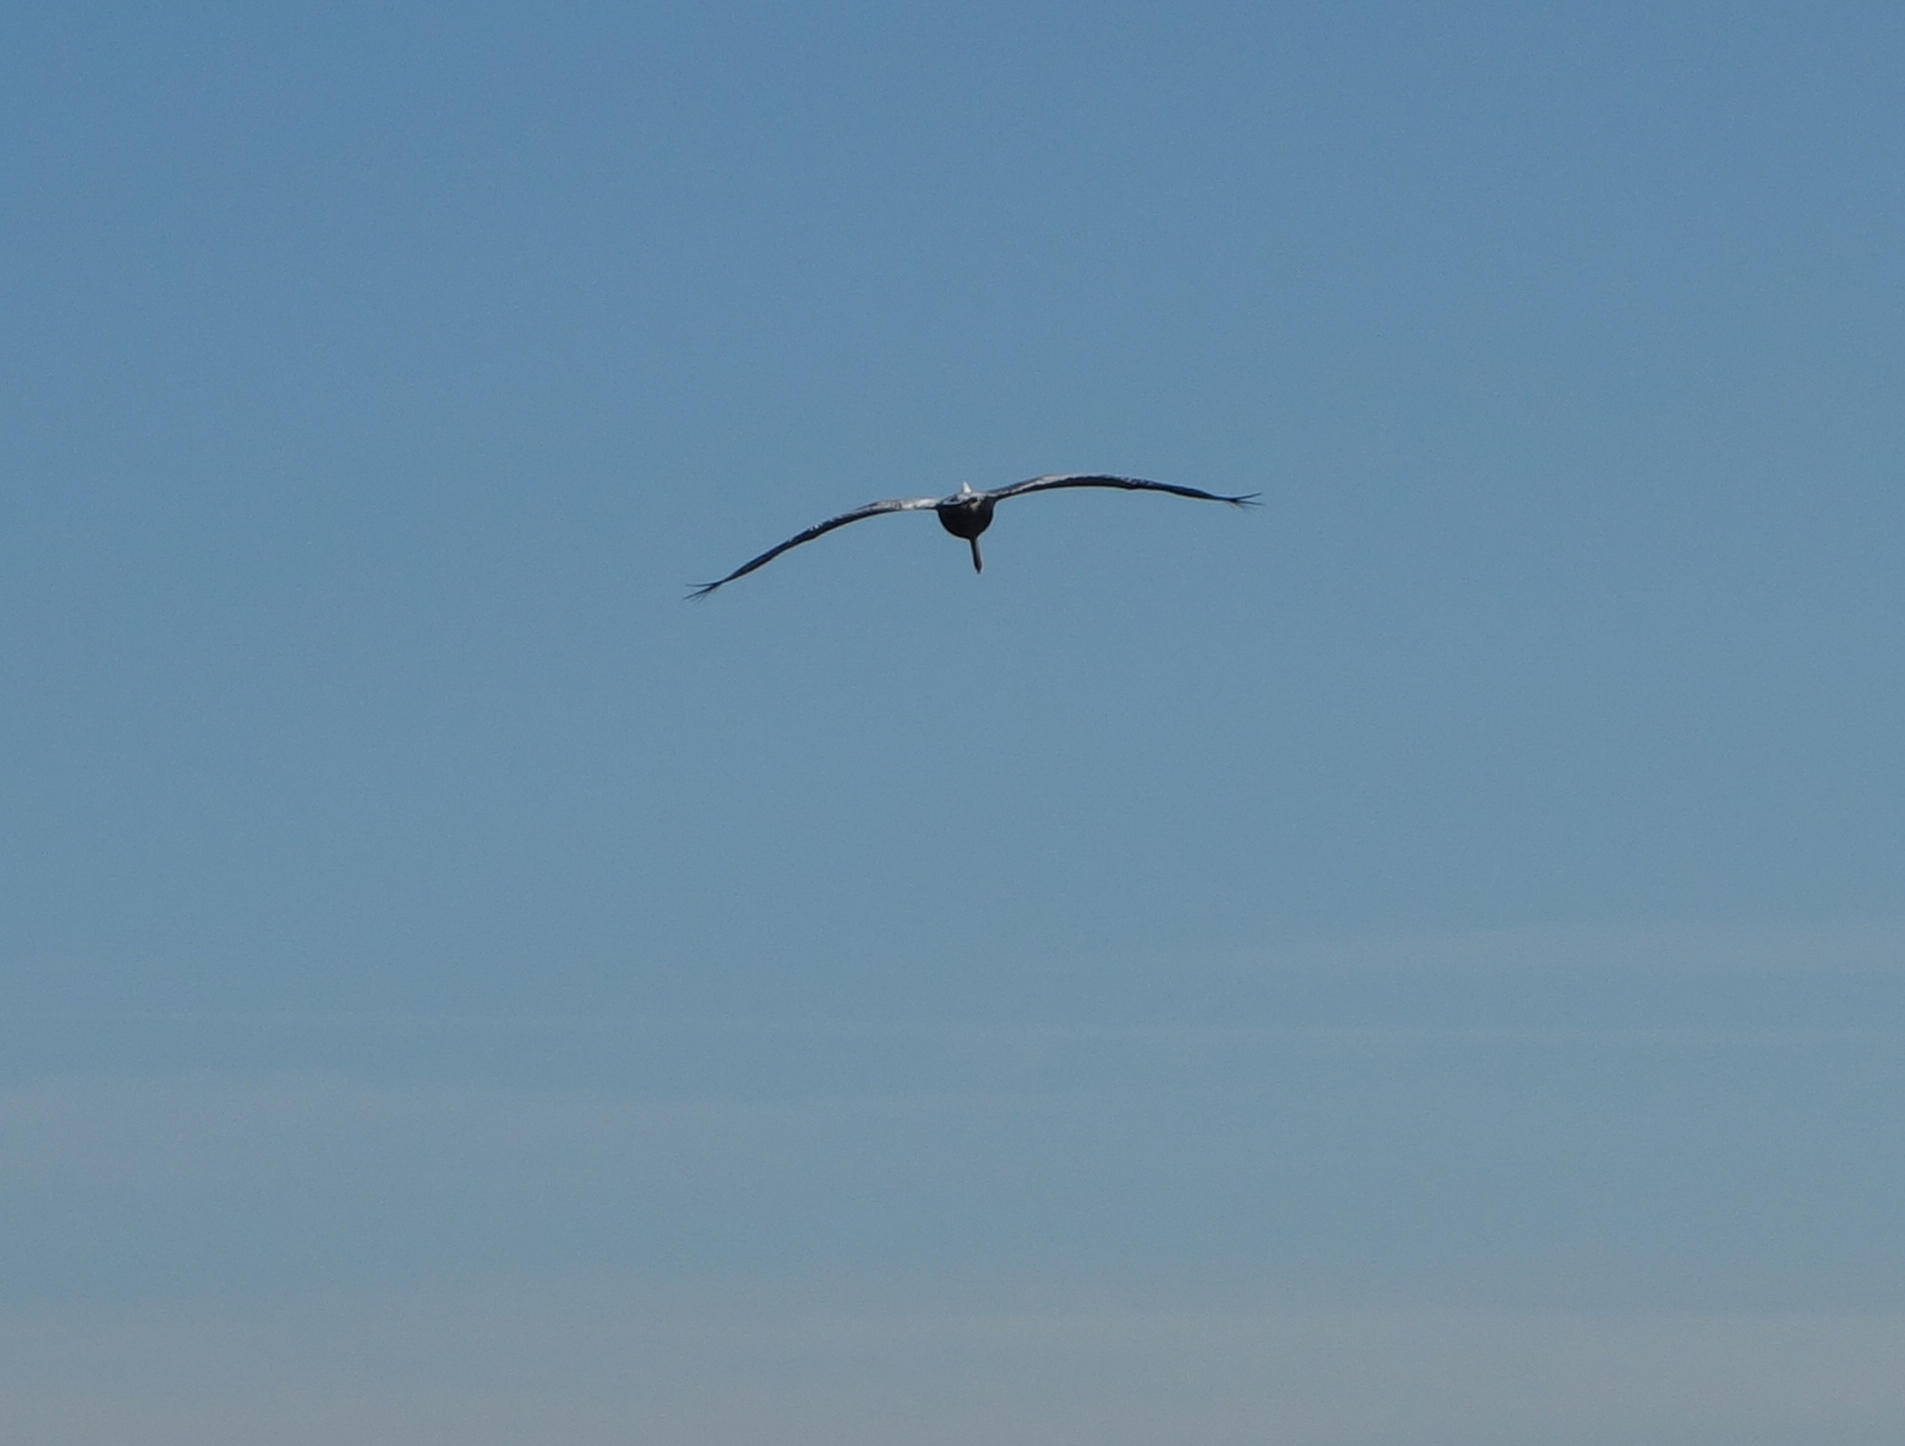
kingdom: Animalia
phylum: Chordata
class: Aves
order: Pelecaniformes
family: Pelecanidae
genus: Pelecanus
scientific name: Pelecanus occidentalis
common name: Brown pelican
